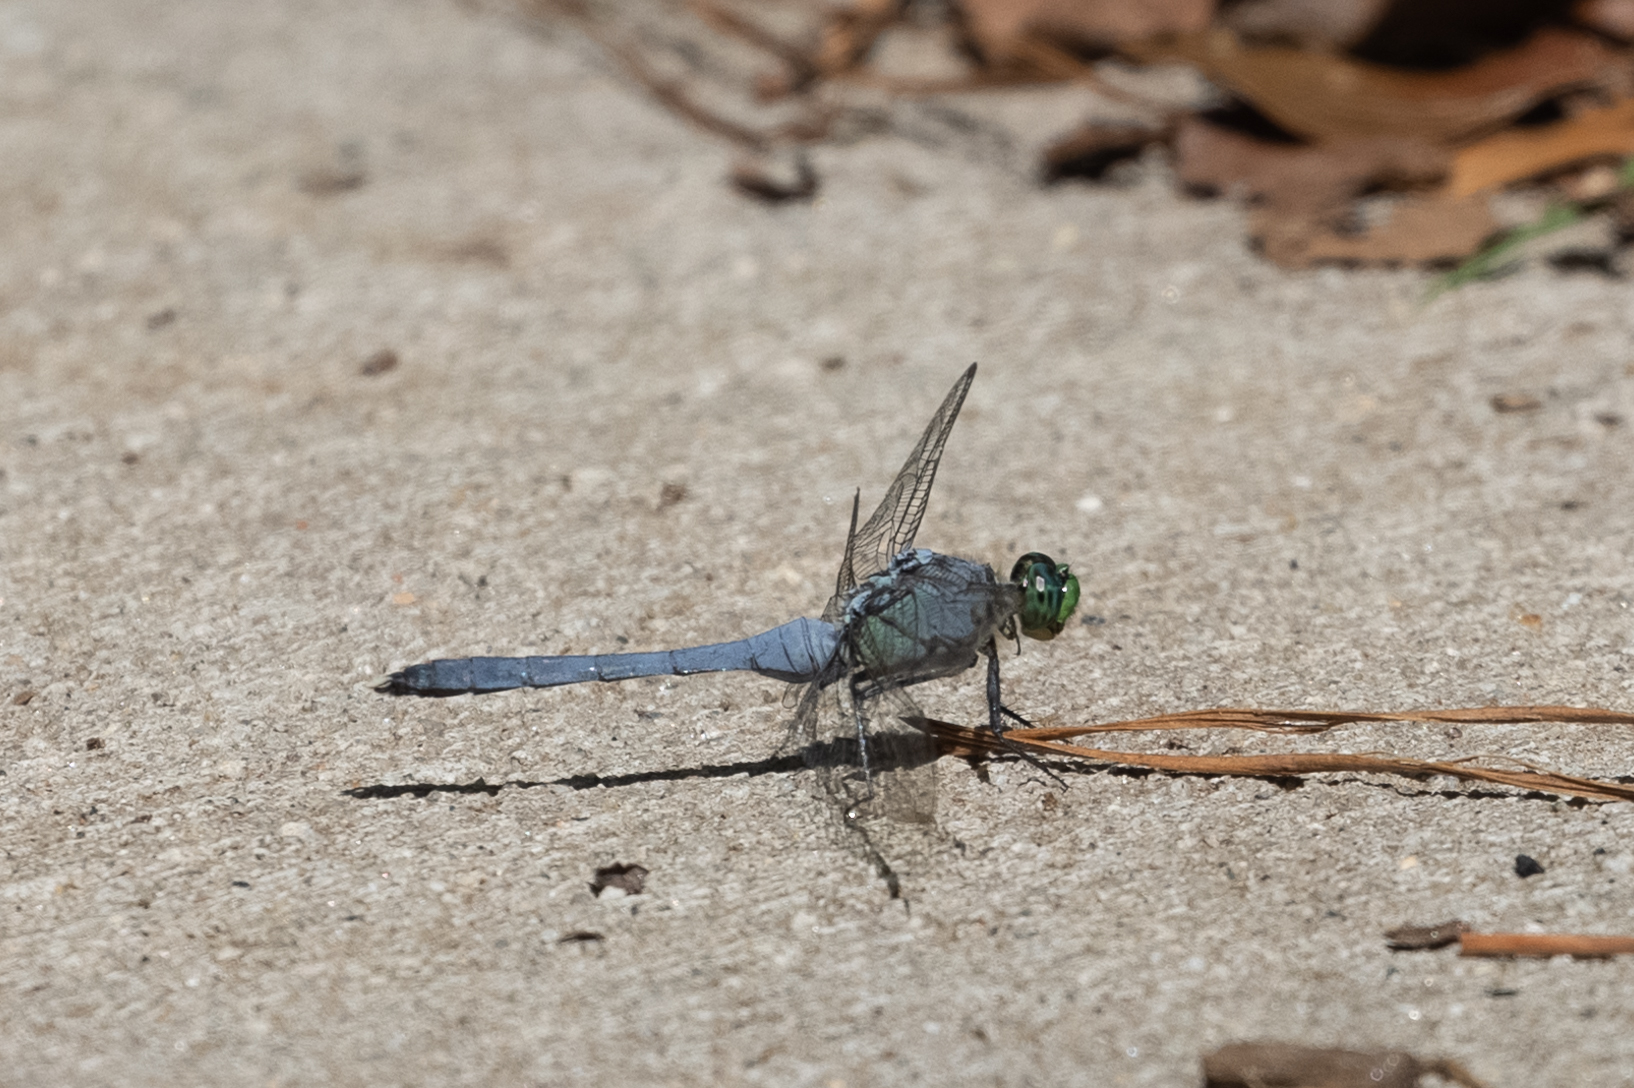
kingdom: Animalia
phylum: Arthropoda
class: Insecta
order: Odonata
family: Libellulidae
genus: Erythemis
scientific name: Erythemis simplicicollis
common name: Eastern pondhawk
